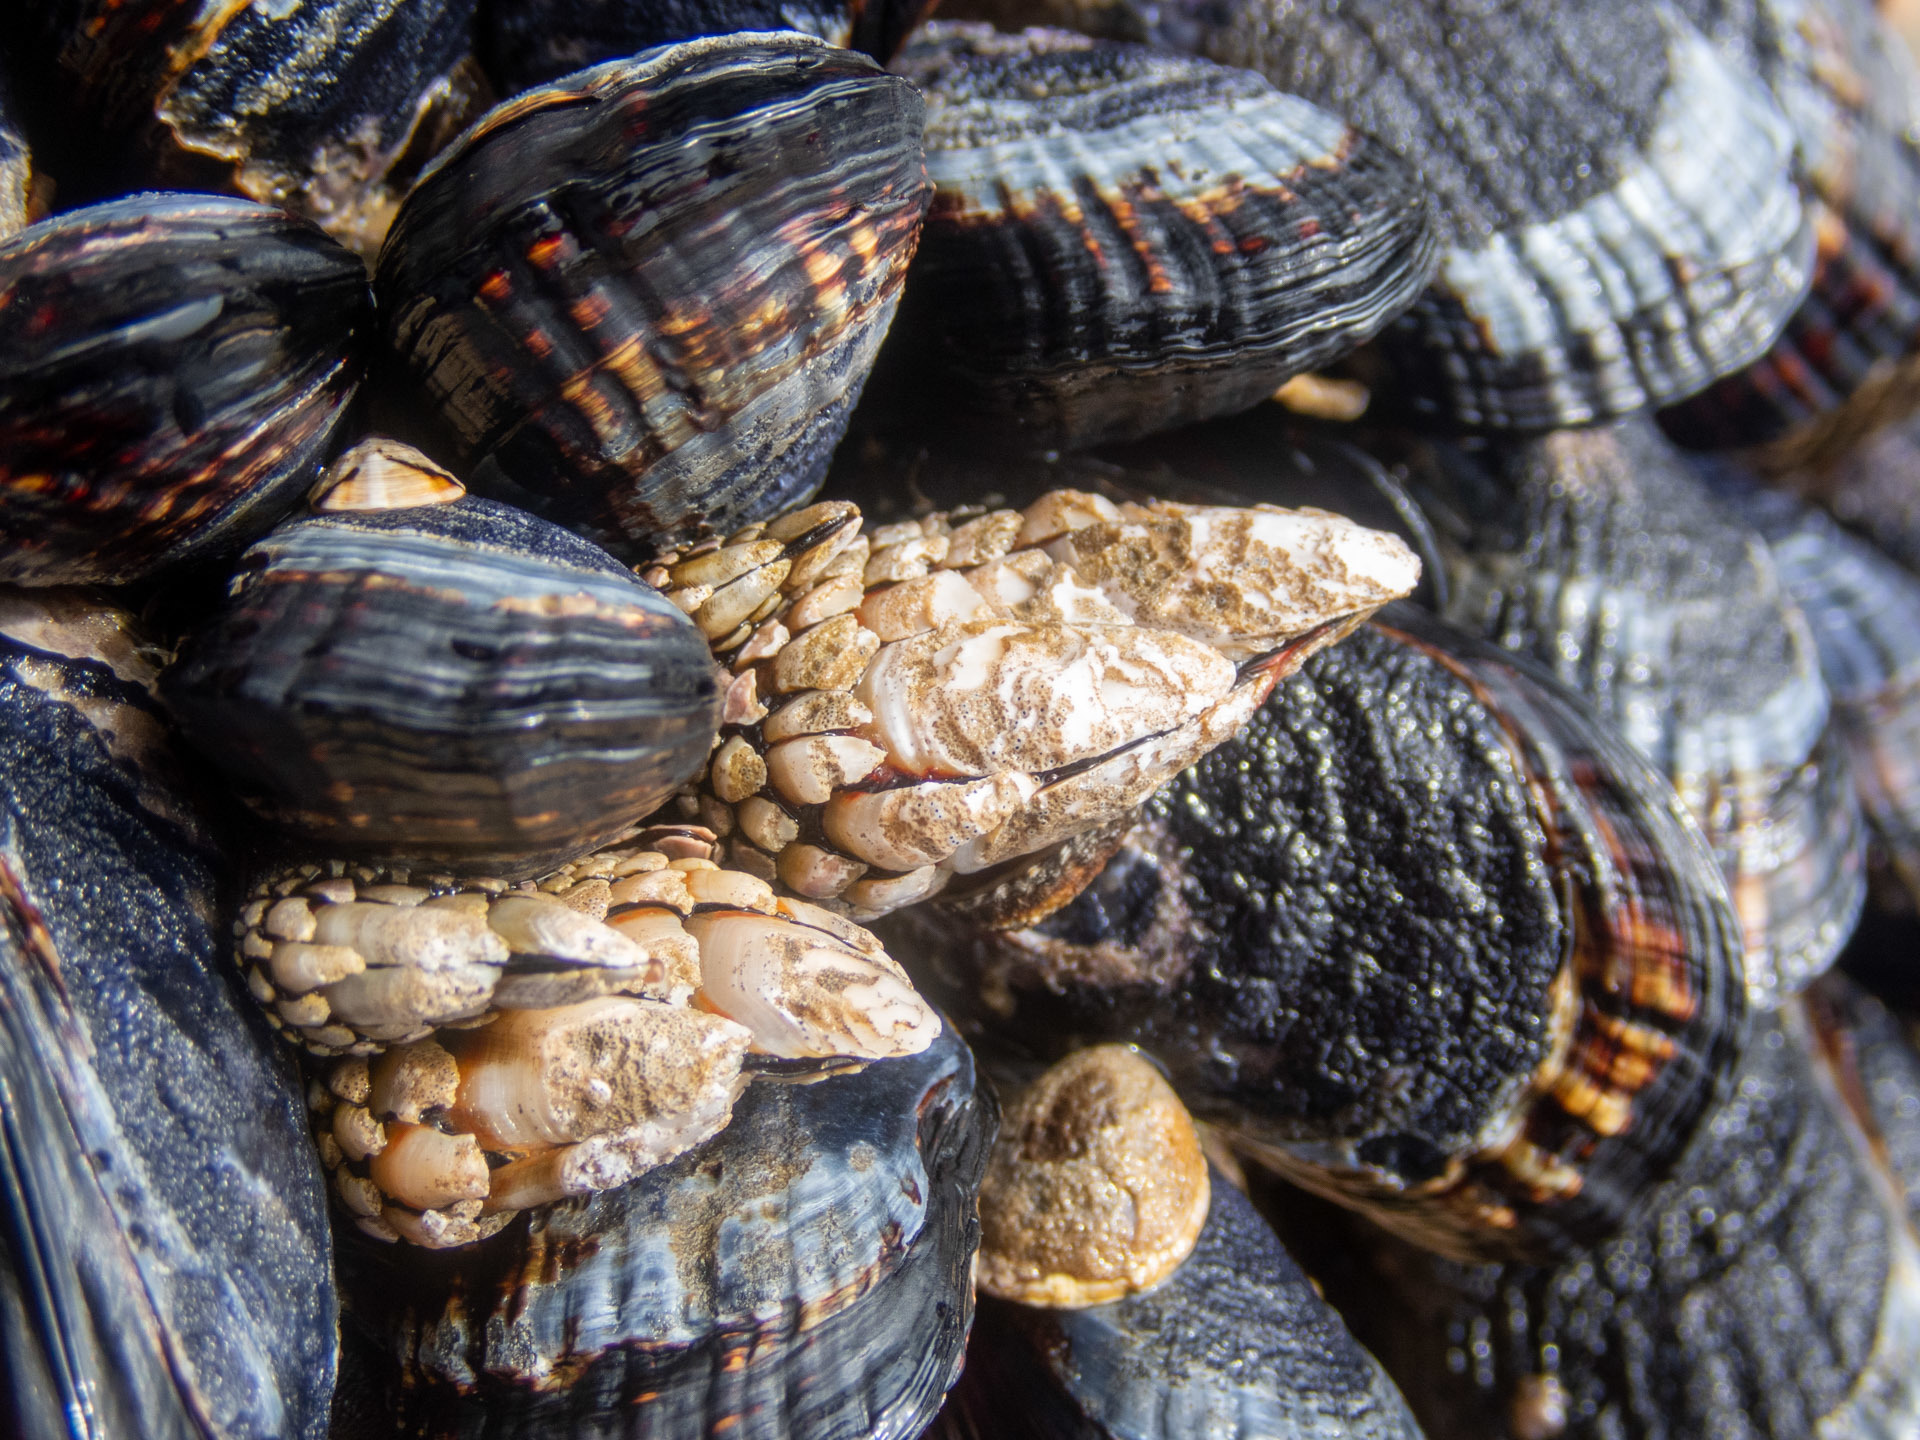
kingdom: Animalia
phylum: Arthropoda
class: Maxillopoda
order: Pedunculata
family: Pollicipedidae
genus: Pollicipes
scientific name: Pollicipes polymerus
